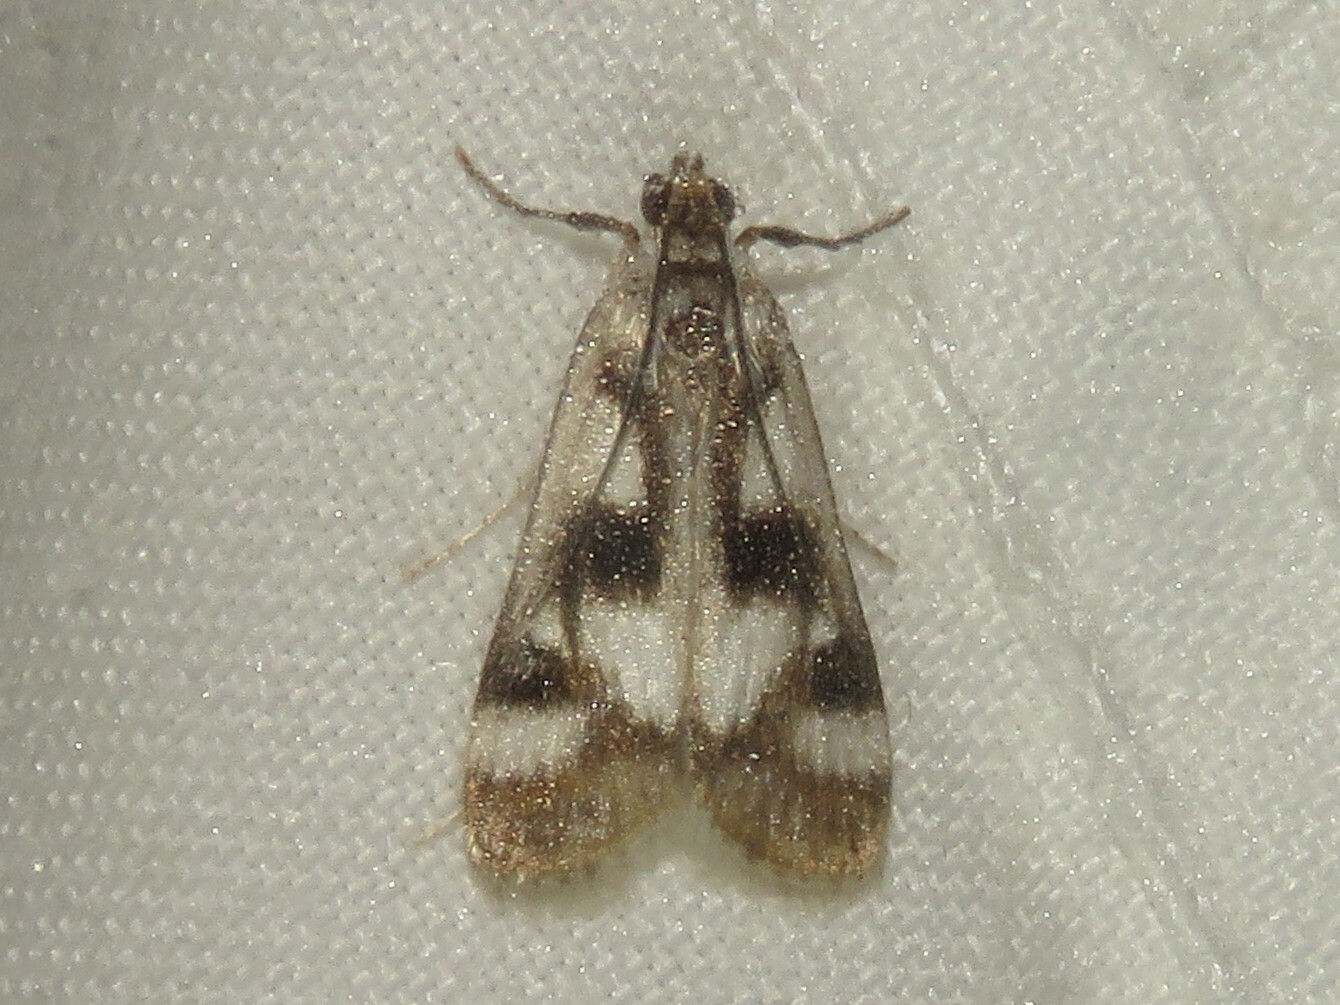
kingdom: Animalia
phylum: Arthropoda
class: Insecta
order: Lepidoptera
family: Crambidae
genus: Parapoynx
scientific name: Parapoynx maculalis
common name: Polymorphic pondweed moth
